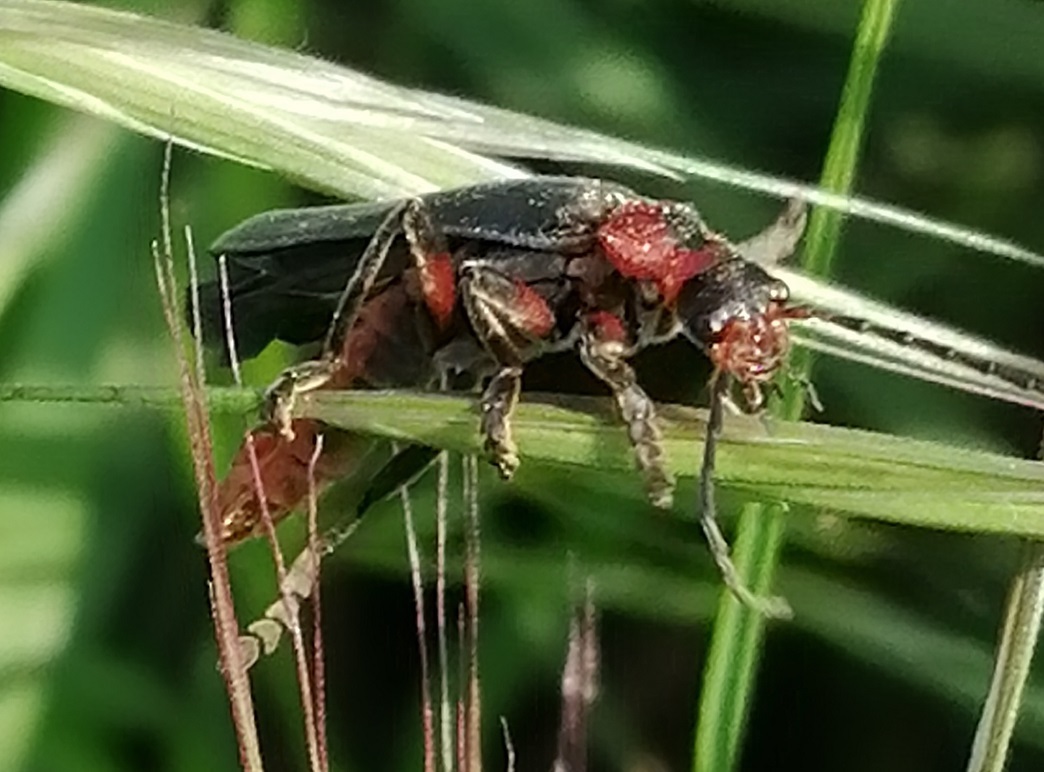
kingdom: Animalia
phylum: Arthropoda
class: Insecta
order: Coleoptera
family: Cantharidae
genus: Cantharis
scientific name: Cantharis rustica
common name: Soldier beetle
